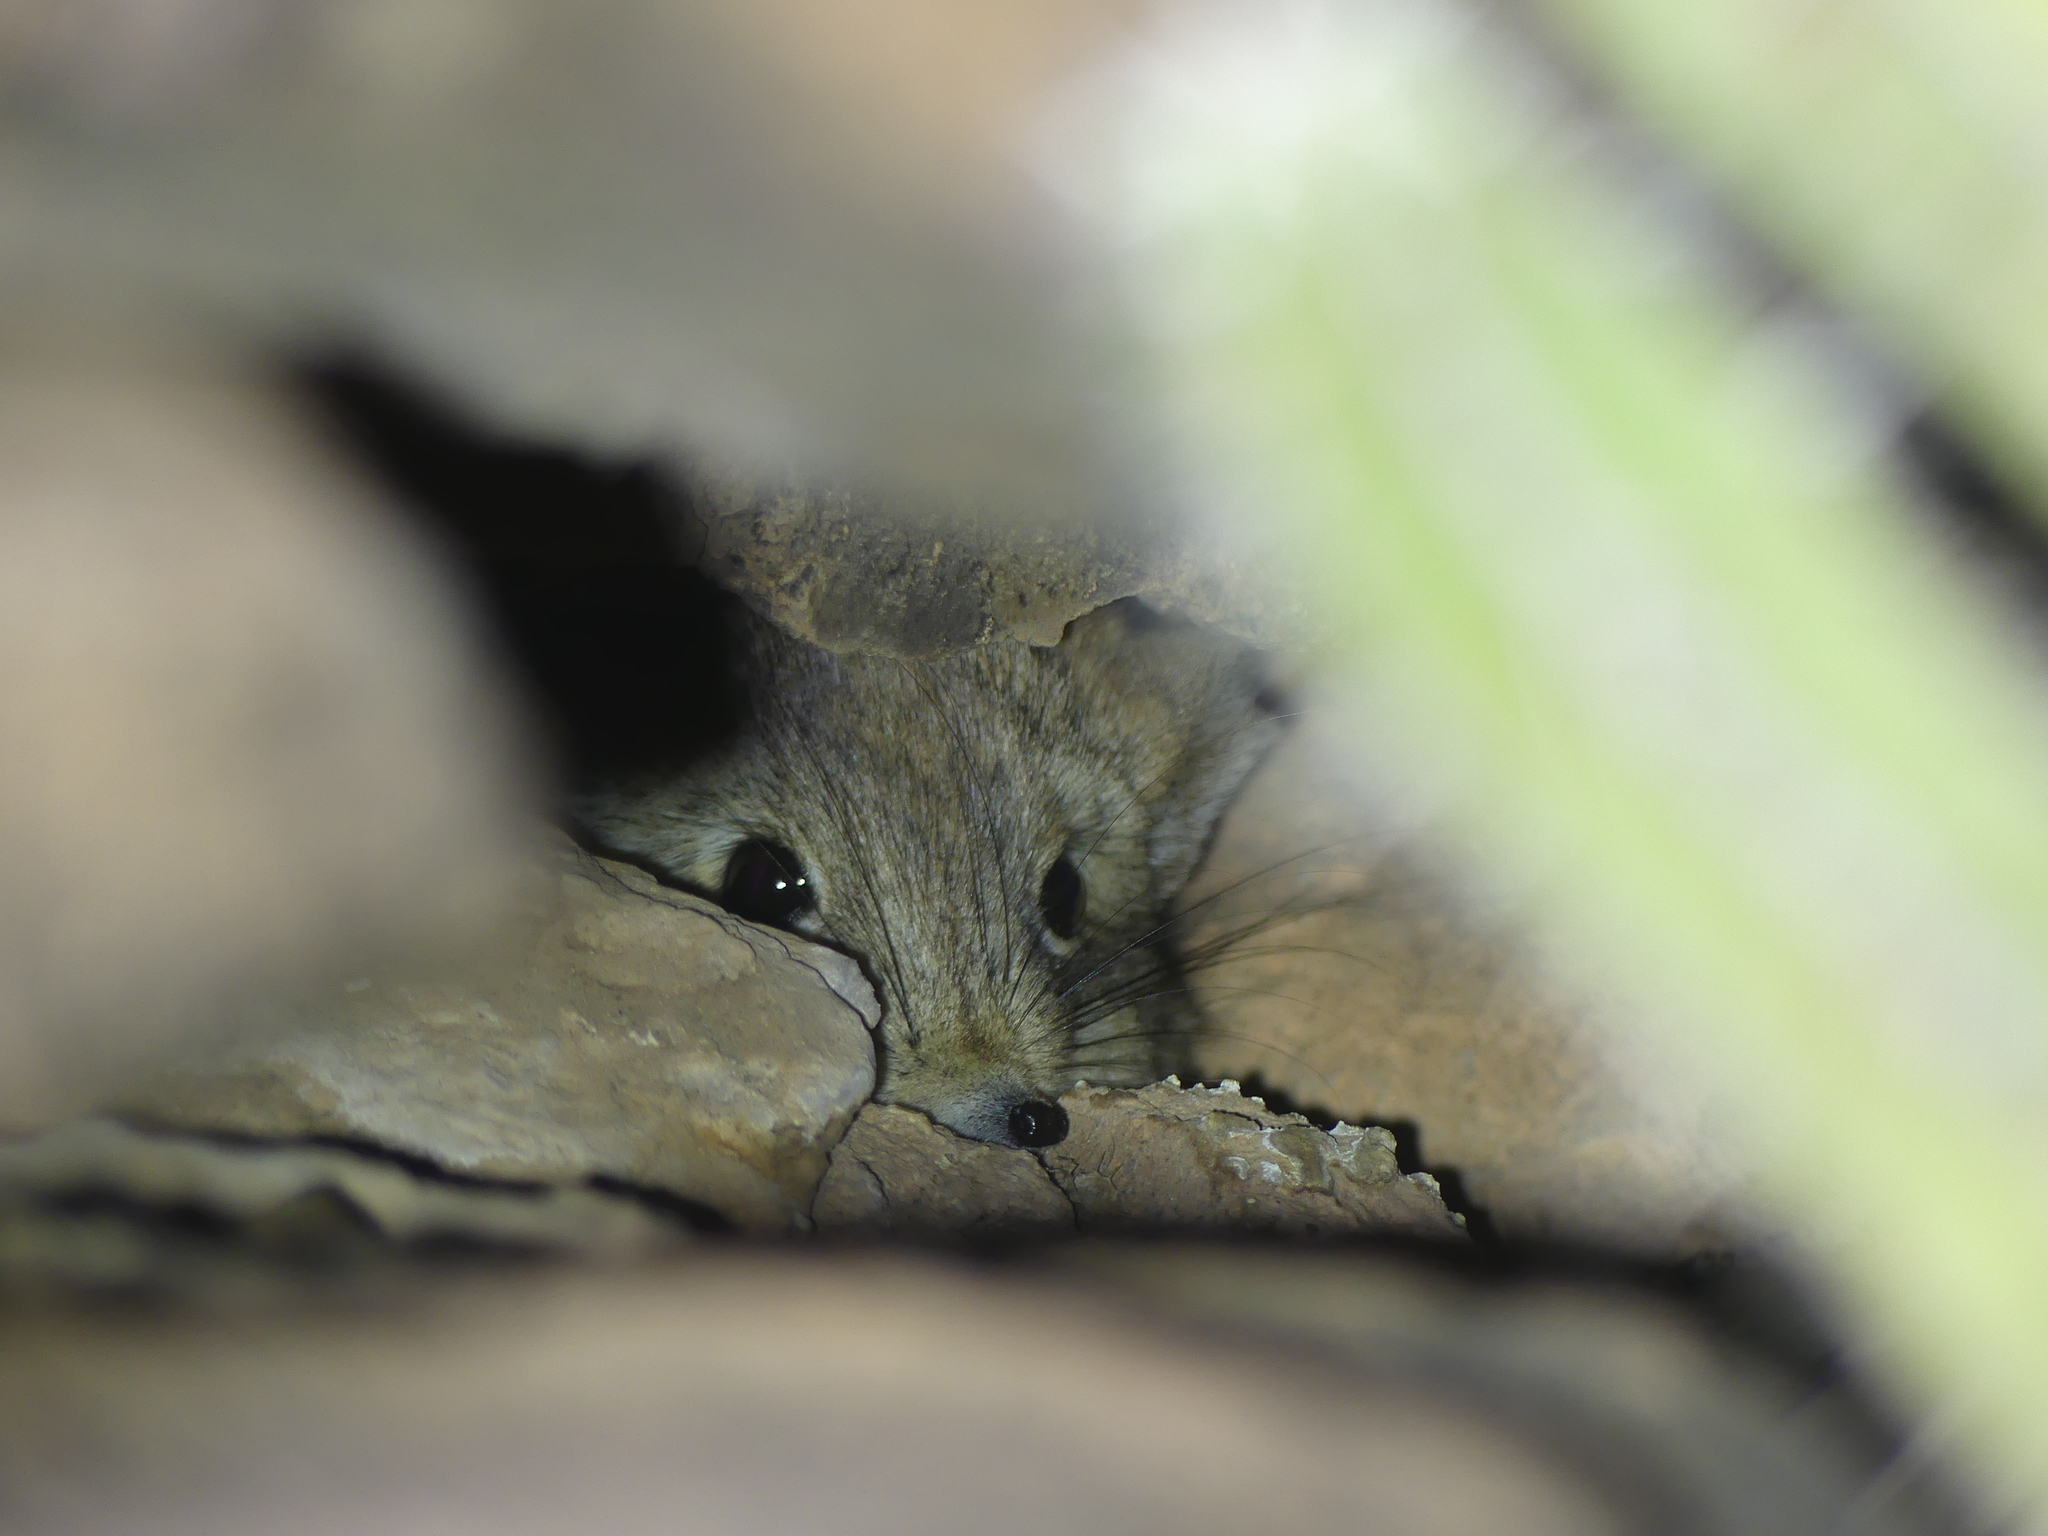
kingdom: Animalia
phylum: Chordata
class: Mammalia
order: Macroscelidea
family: Macroscelididae
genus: Elephantulus
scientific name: Elephantulus rozeti
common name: North african elephant shrew
